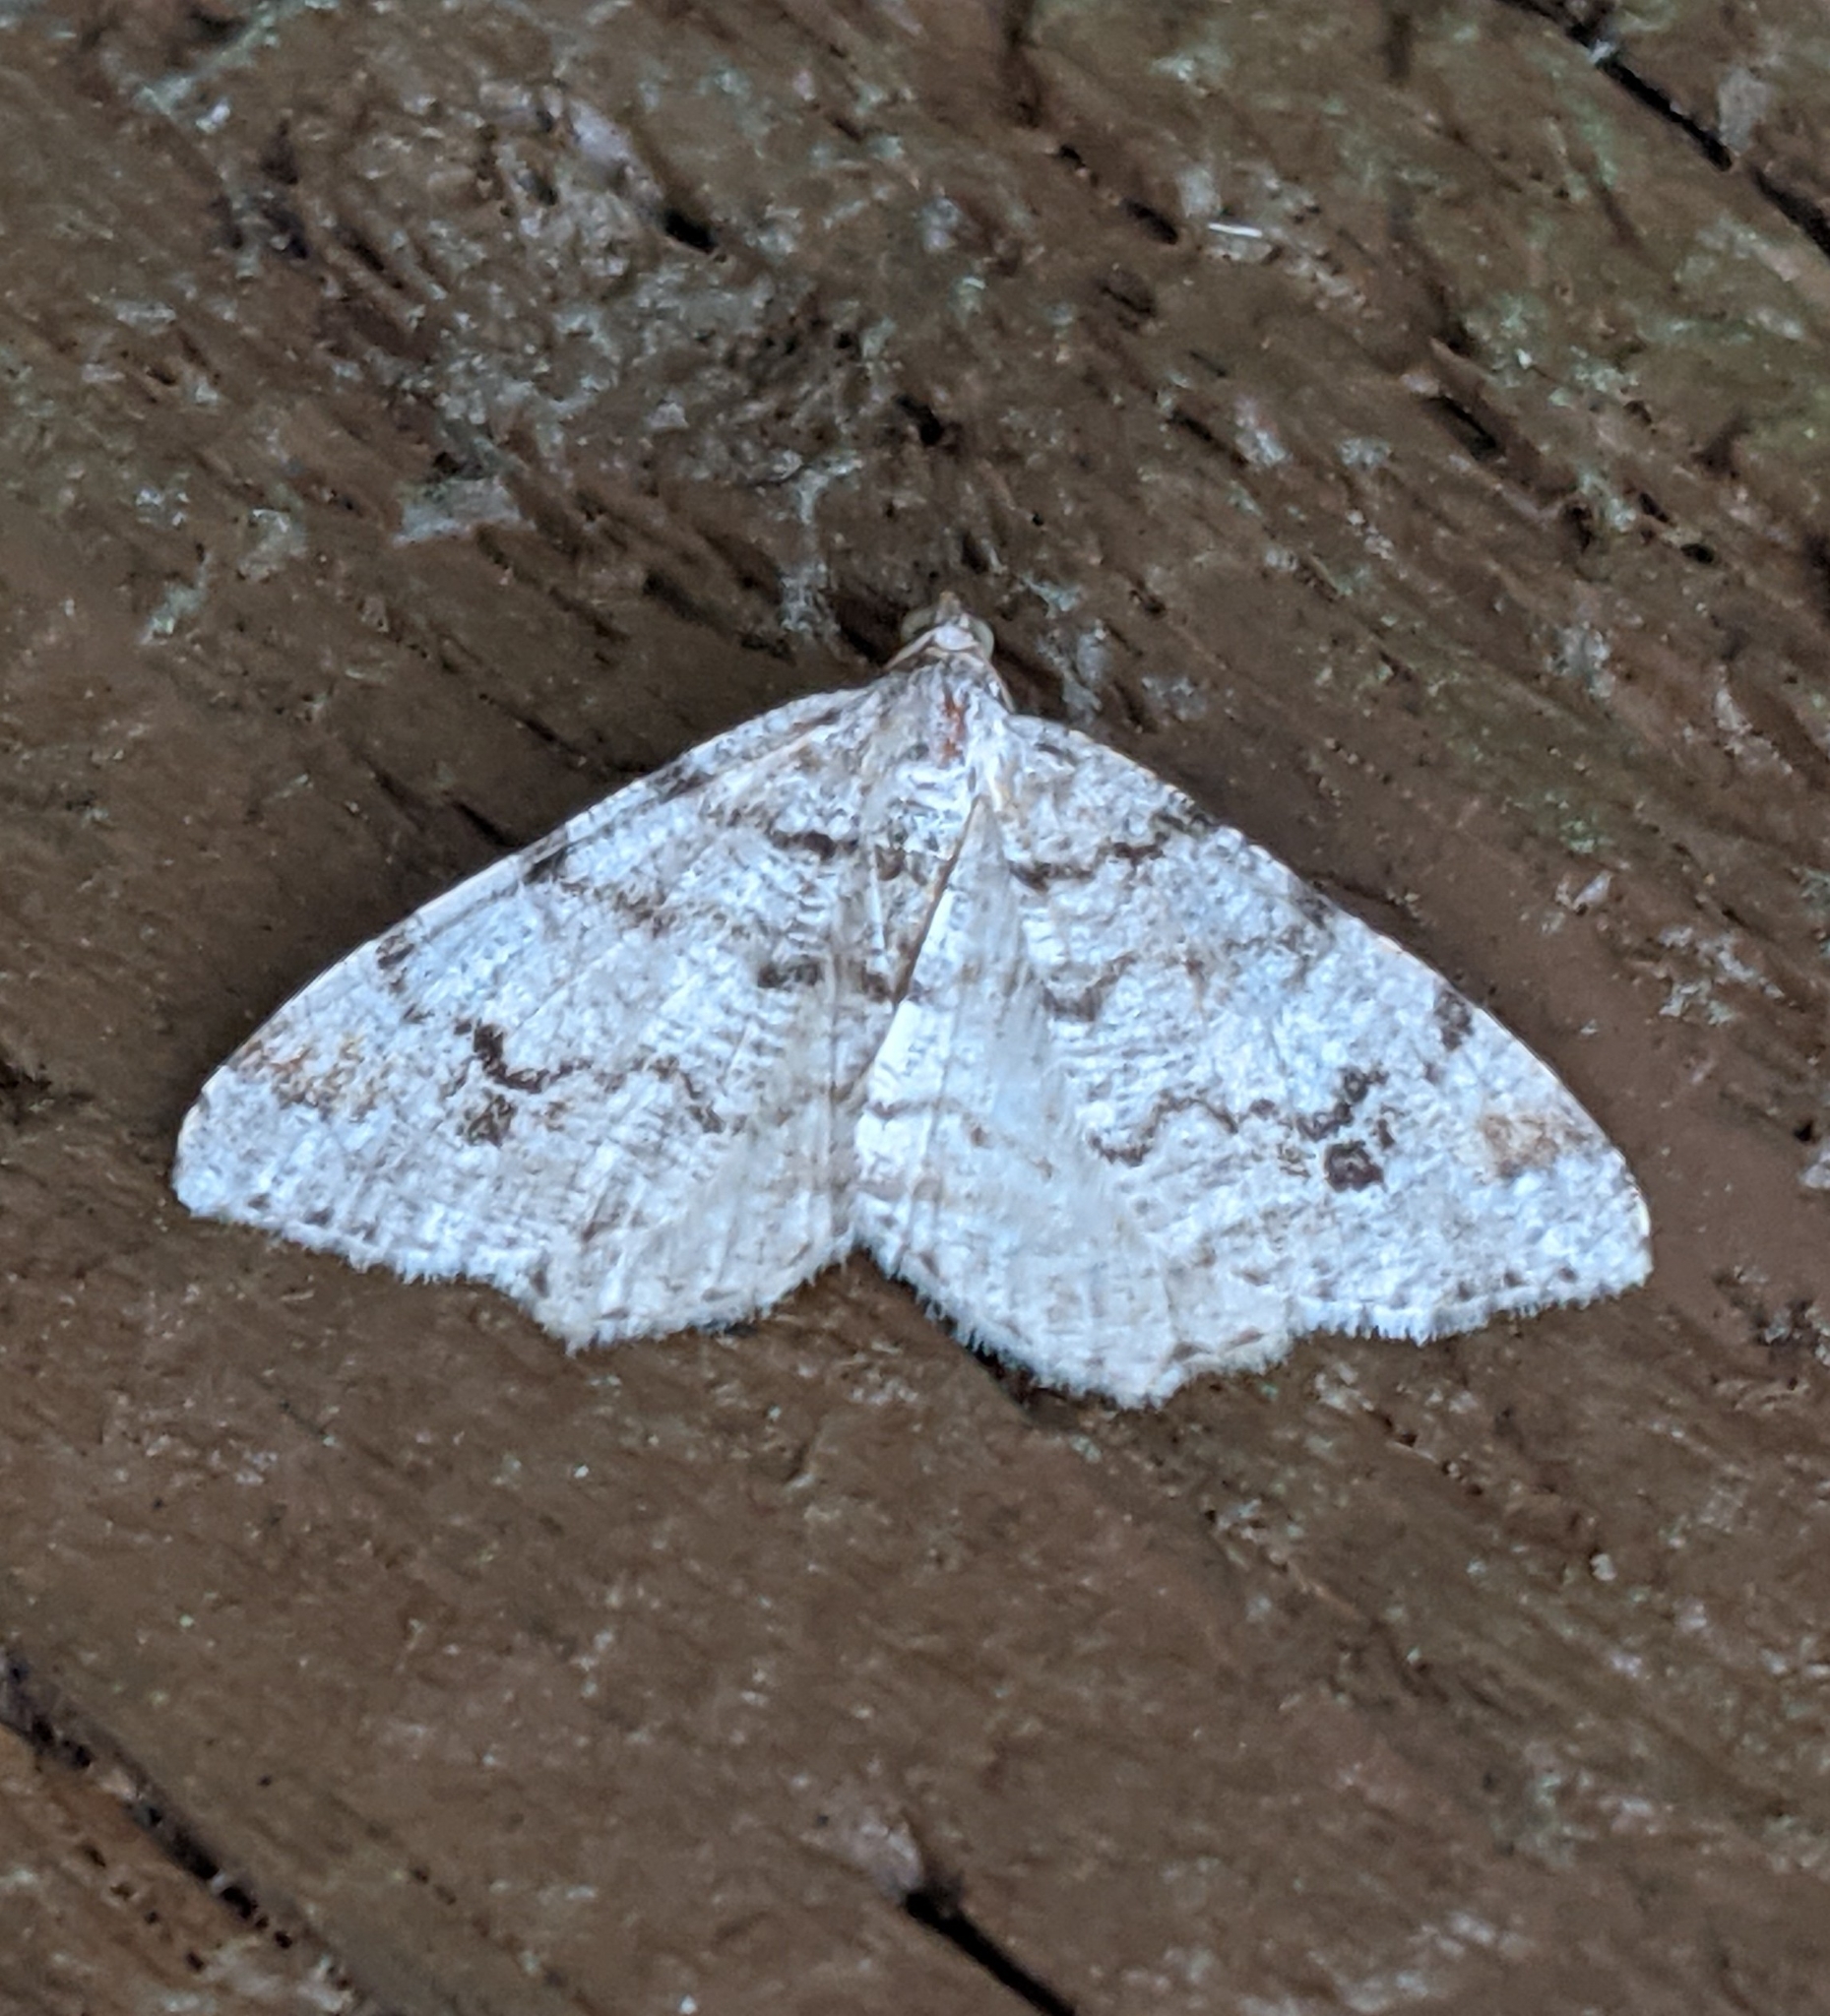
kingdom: Animalia
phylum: Arthropoda
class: Insecta
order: Lepidoptera
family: Geometridae
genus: Macaria
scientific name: Macaria signaria
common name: Dusky peacock
